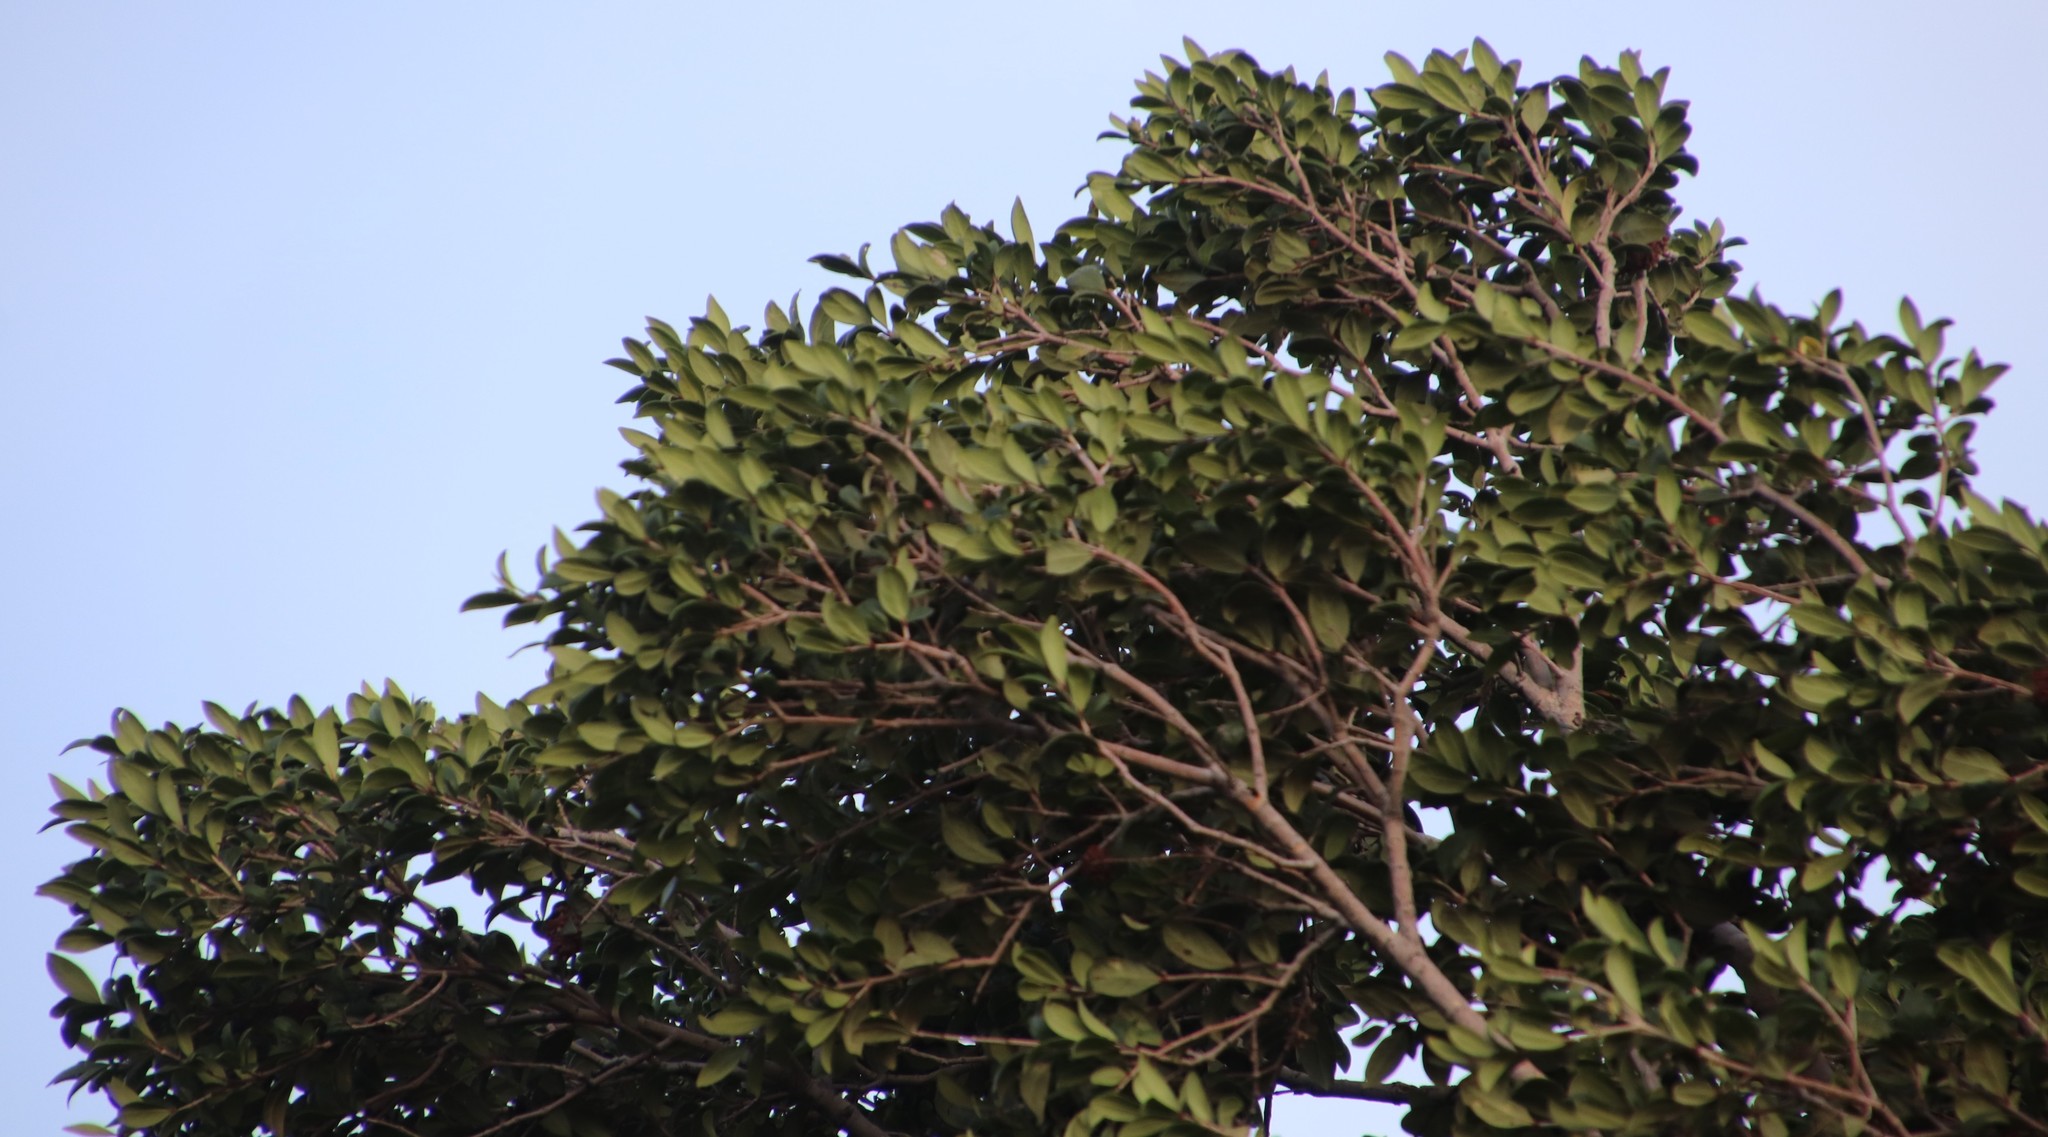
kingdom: Plantae
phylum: Tracheophyta
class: Magnoliopsida
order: Myrtales
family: Penaeaceae
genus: Olinia
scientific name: Olinia emarginata
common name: Mountain hard pear
